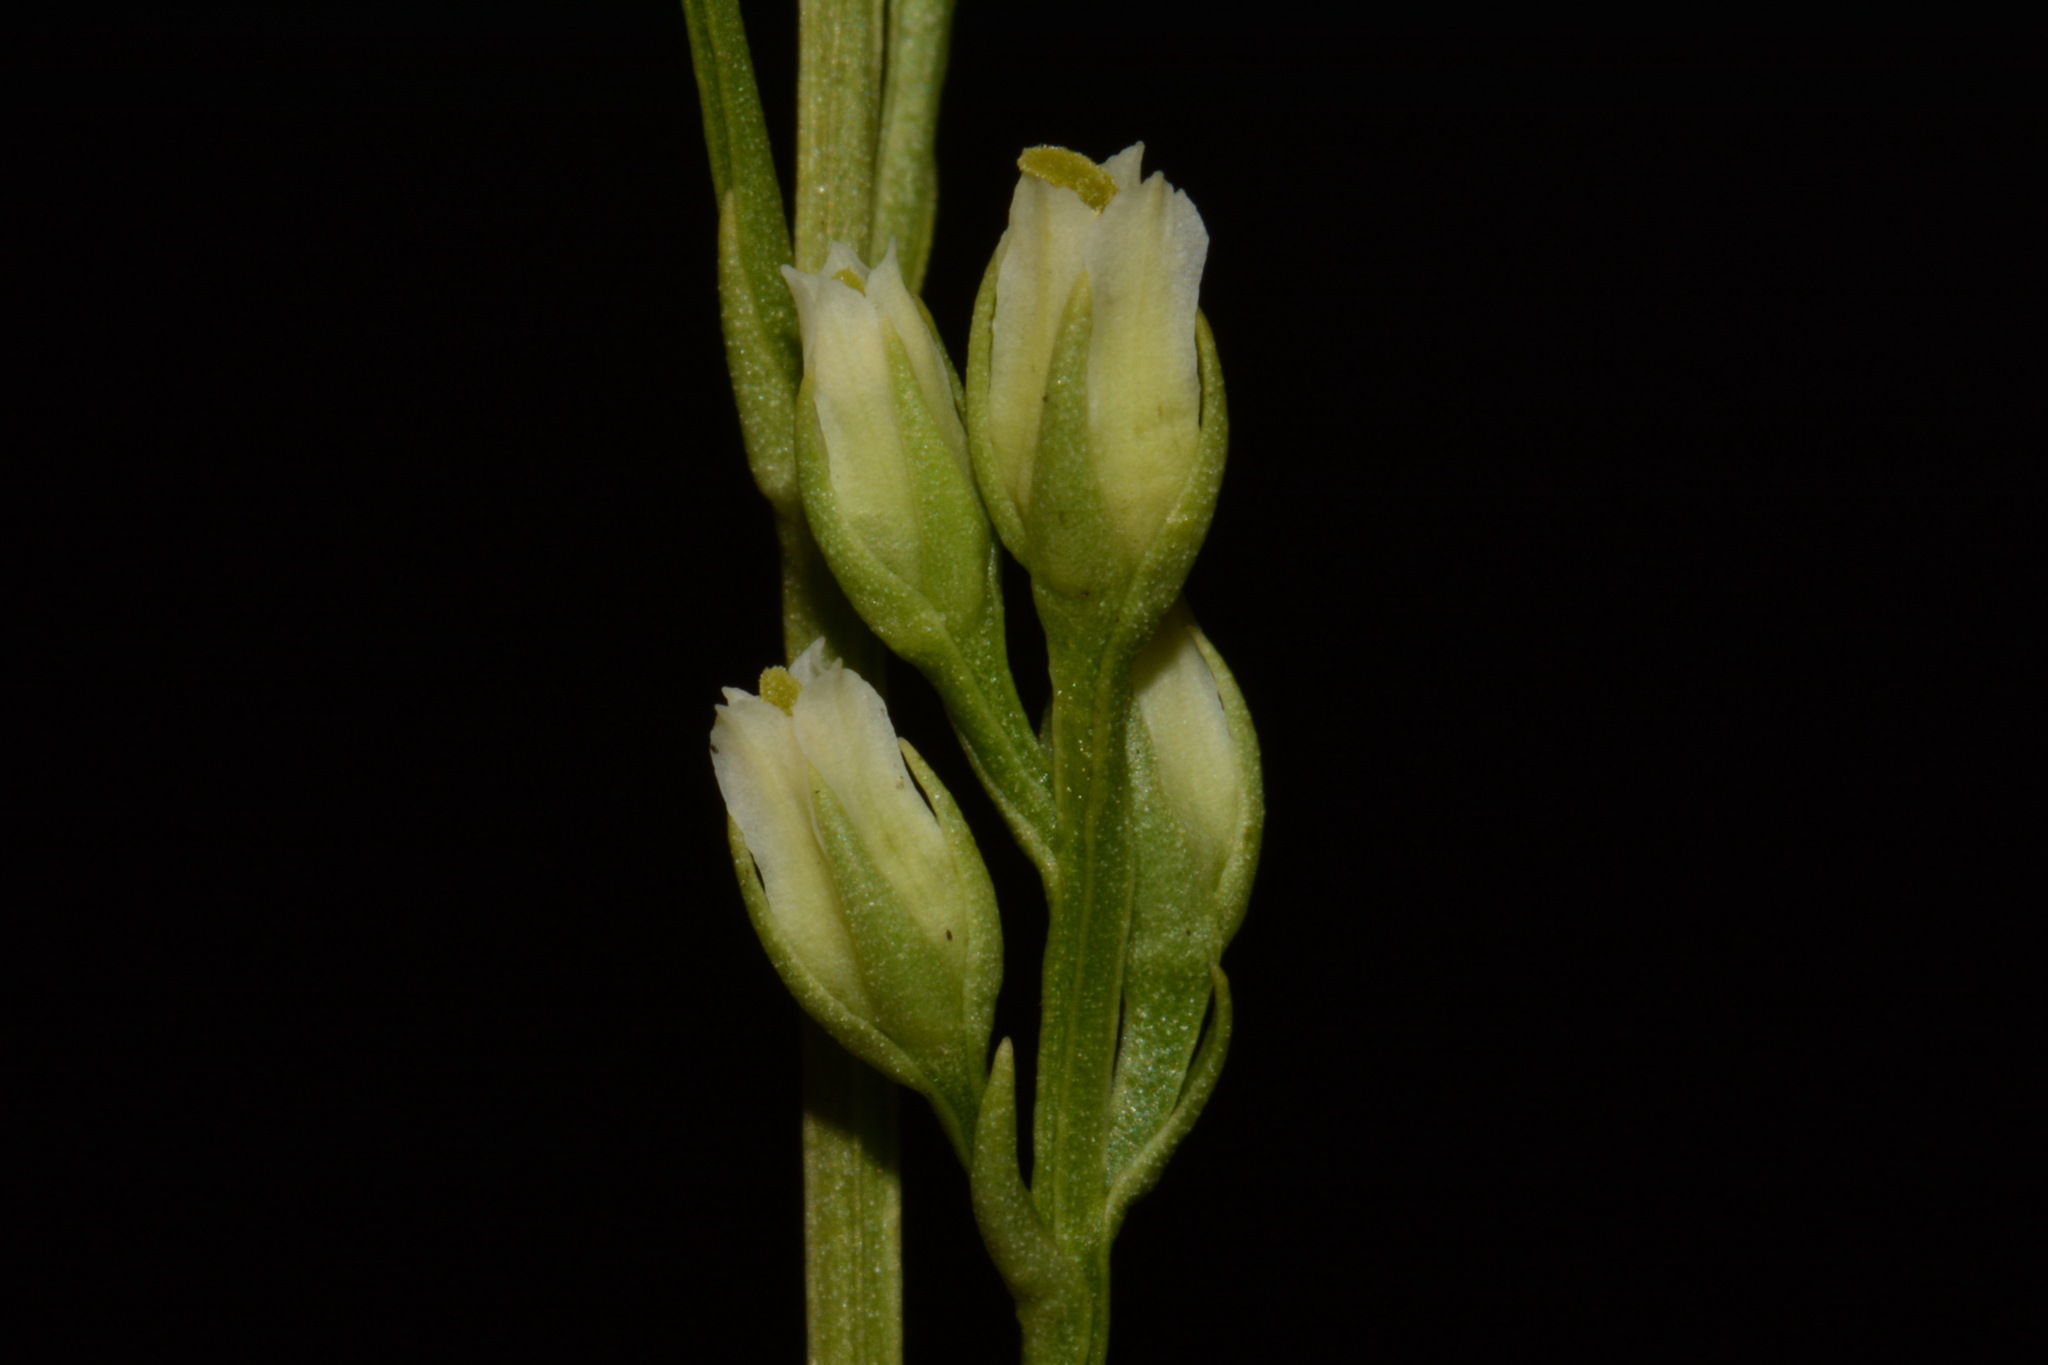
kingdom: Plantae
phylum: Tracheophyta
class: Magnoliopsida
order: Gentianales
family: Gentianaceae
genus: Bartonia
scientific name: Bartonia virginica
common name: Yellow bartonia
